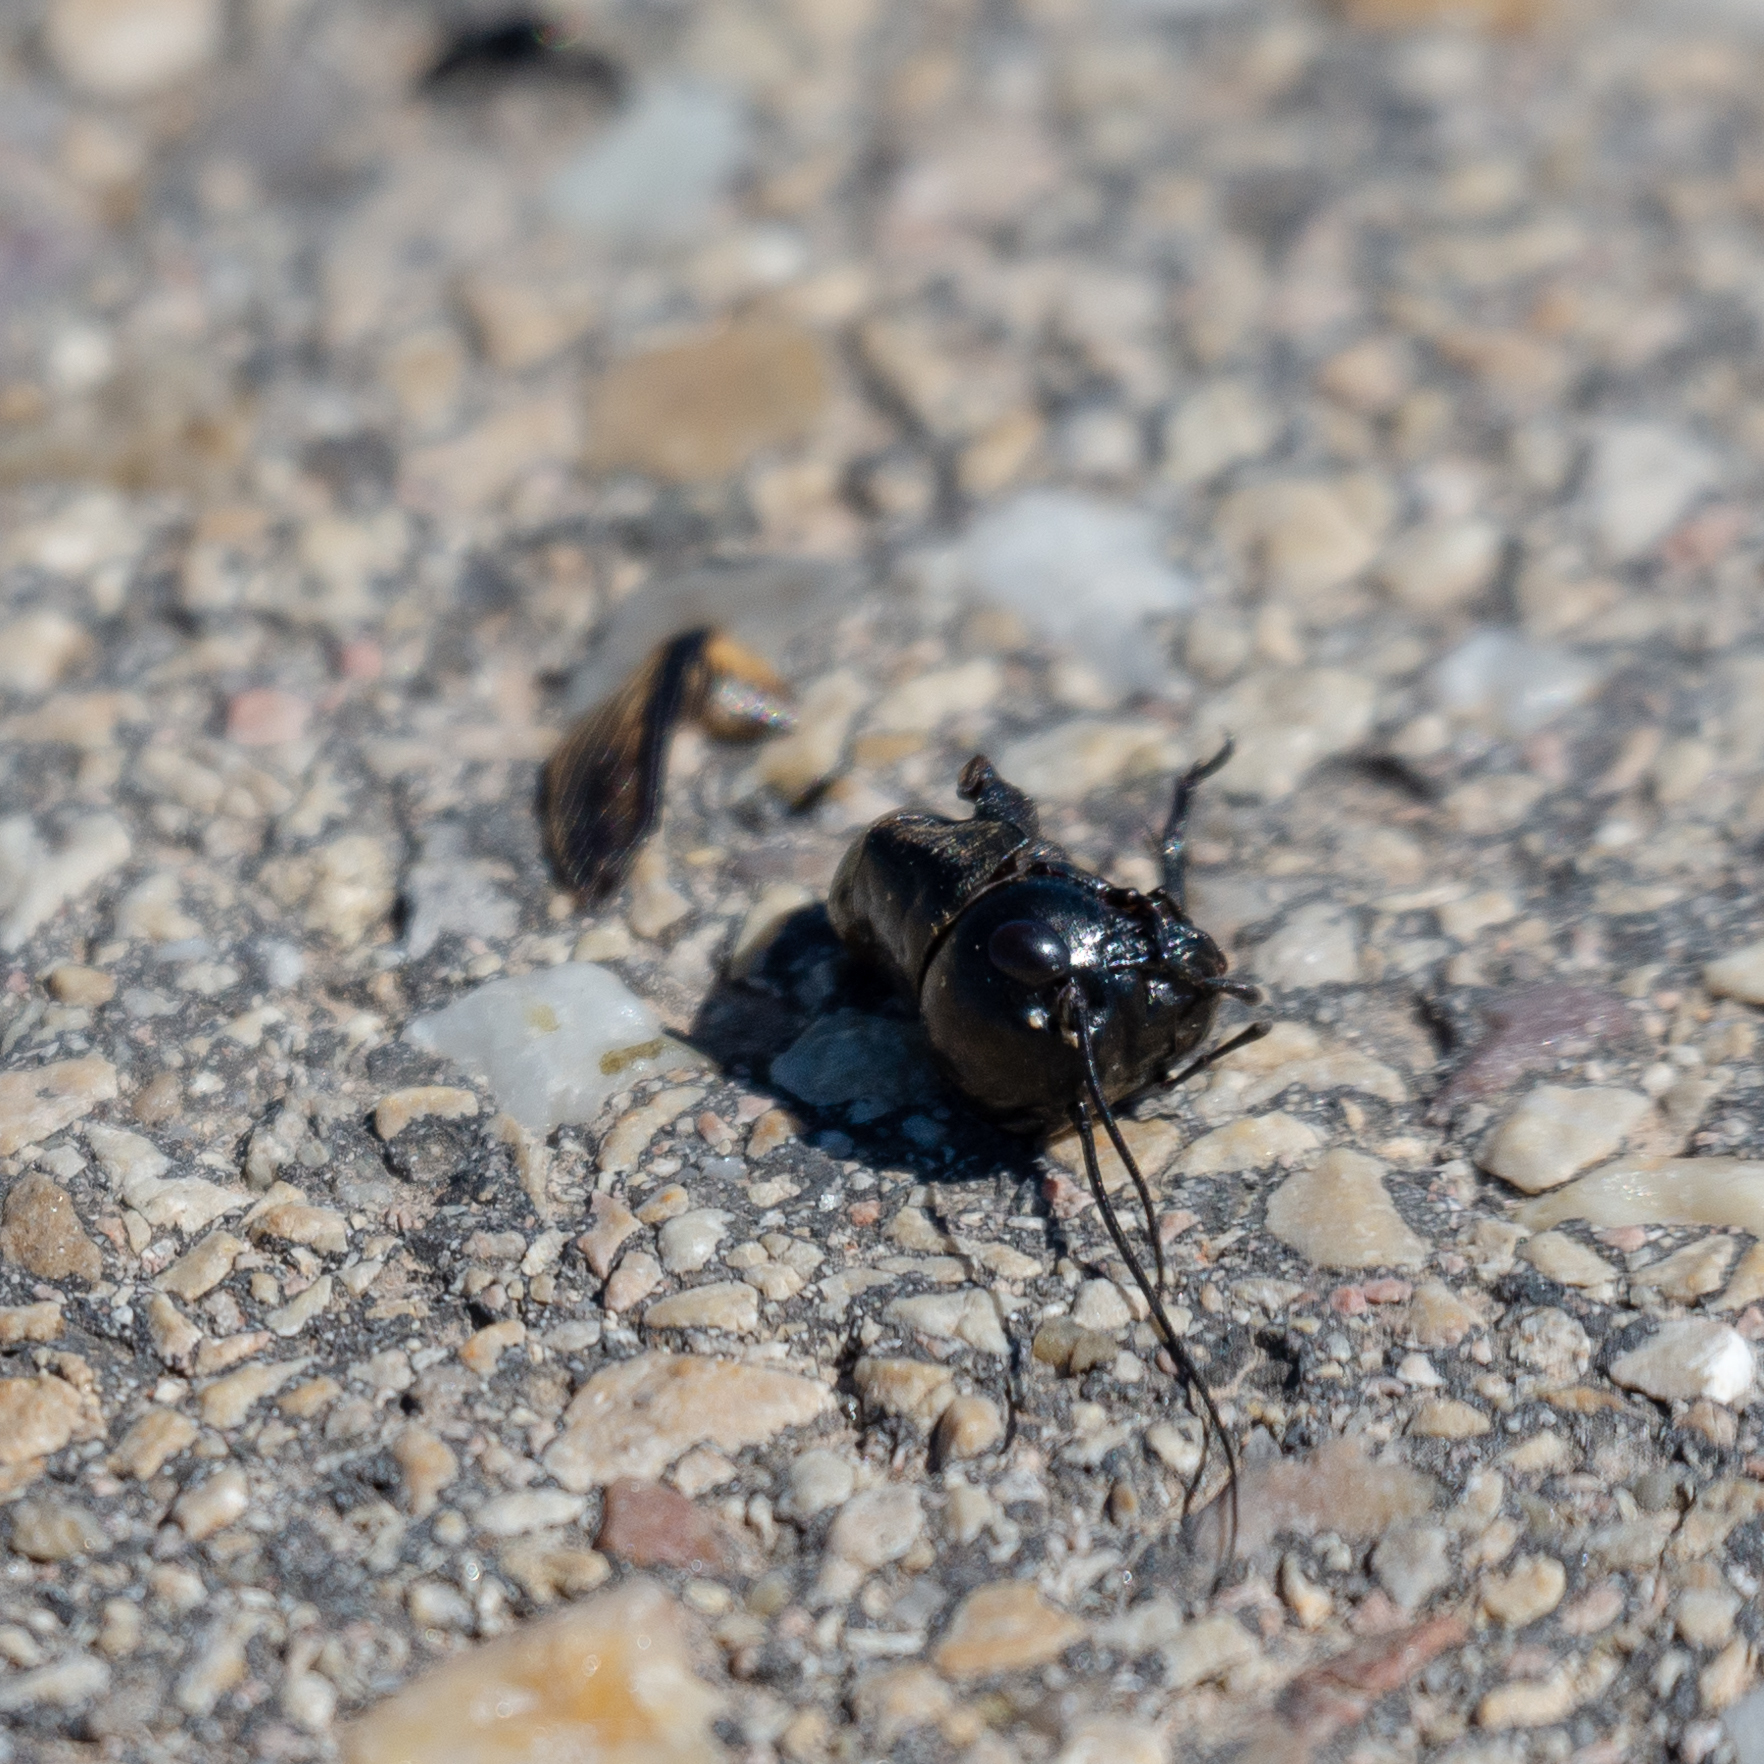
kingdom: Animalia
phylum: Arthropoda
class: Insecta
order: Orthoptera
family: Gryllidae
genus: Gryllus
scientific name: Gryllus campestris
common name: Field cricket
